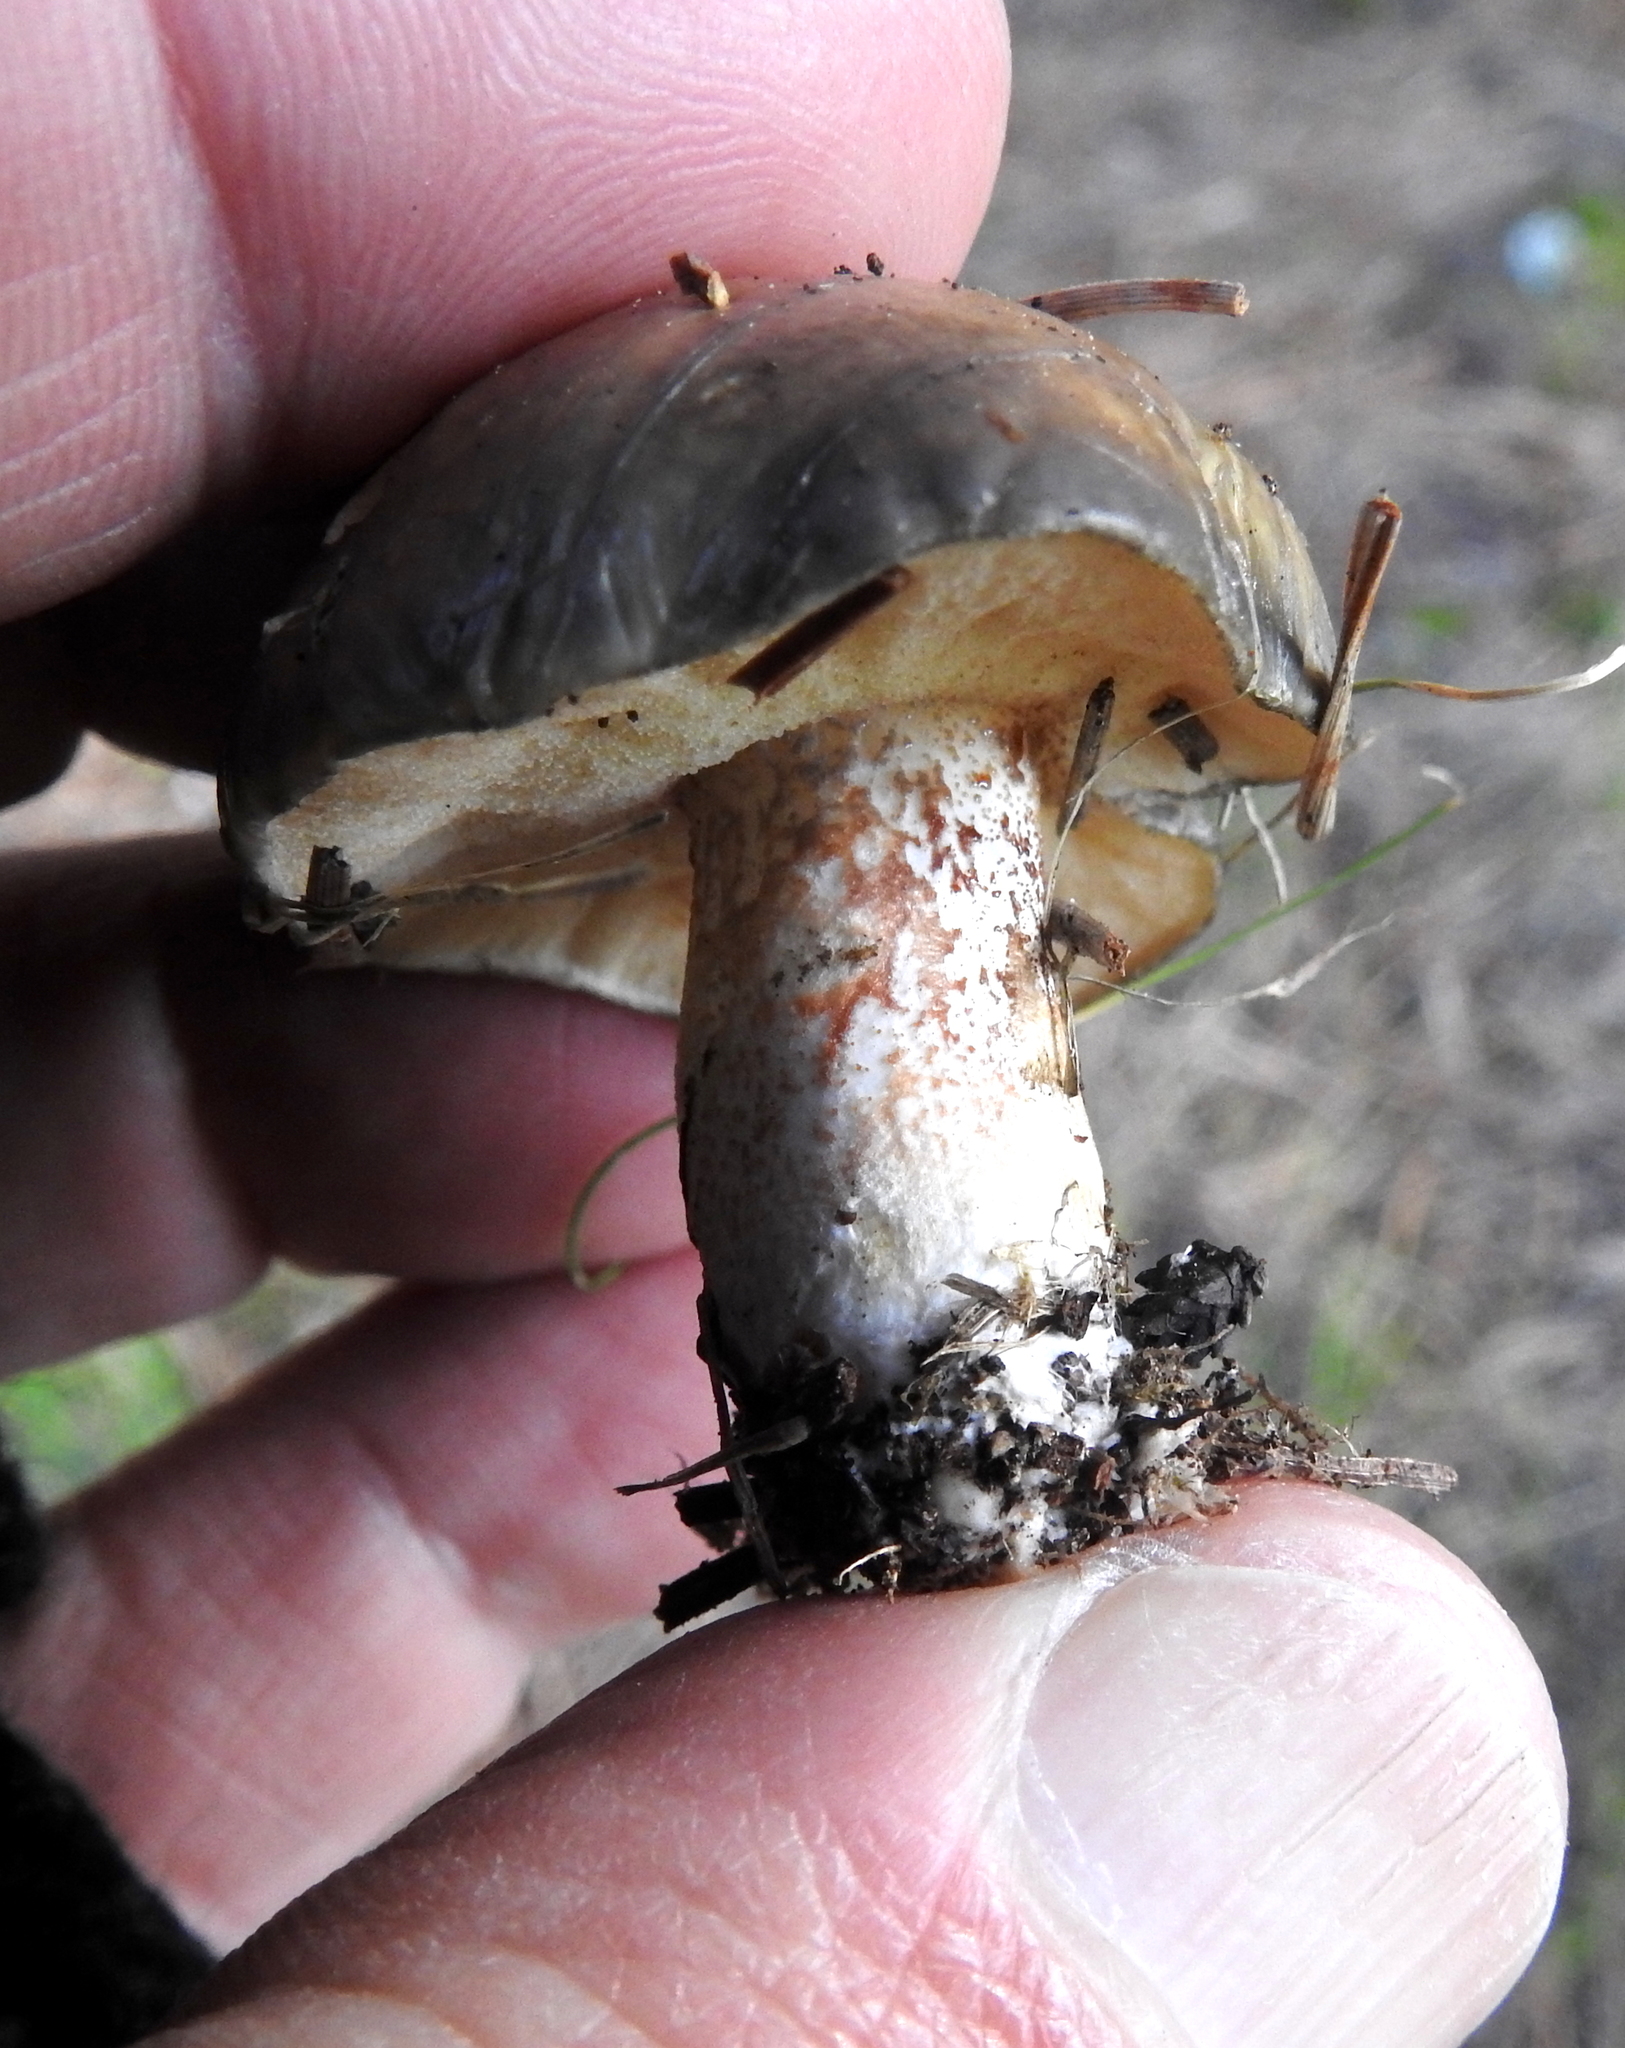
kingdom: Fungi
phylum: Basidiomycota
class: Agaricomycetes
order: Boletales
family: Suillaceae
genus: Suillus
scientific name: Suillus pungens
